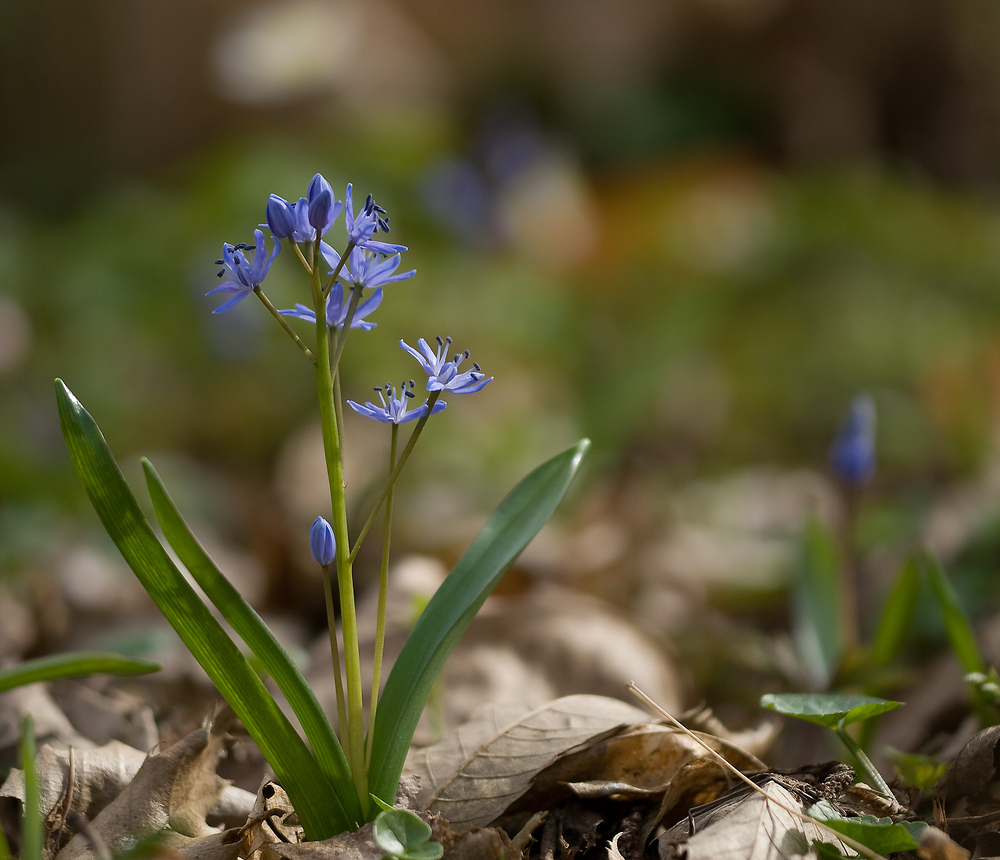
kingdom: Plantae
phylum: Tracheophyta
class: Liliopsida
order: Asparagales
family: Asparagaceae
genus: Scilla
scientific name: Scilla bifolia
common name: Alpine squill
